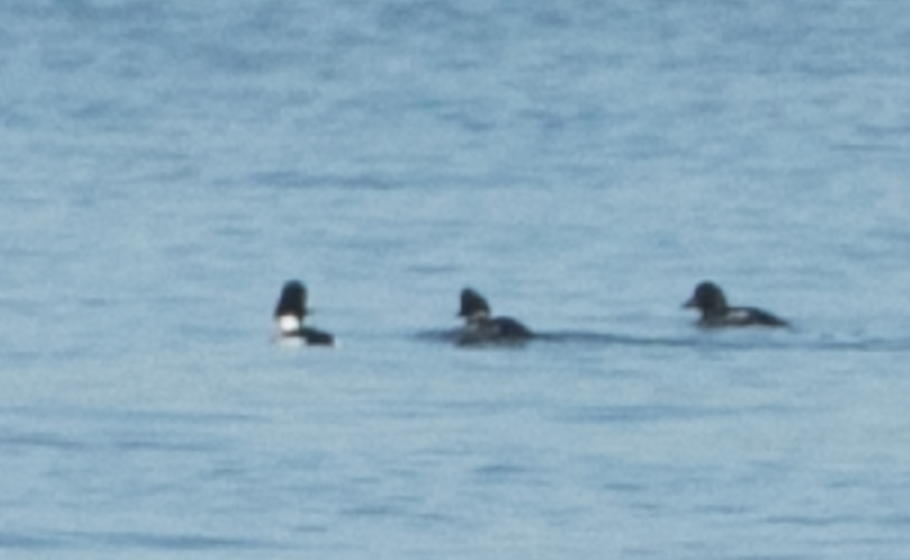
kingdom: Animalia
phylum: Chordata
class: Aves
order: Anseriformes
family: Anatidae
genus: Bucephala
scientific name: Bucephala clangula
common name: Common goldeneye
